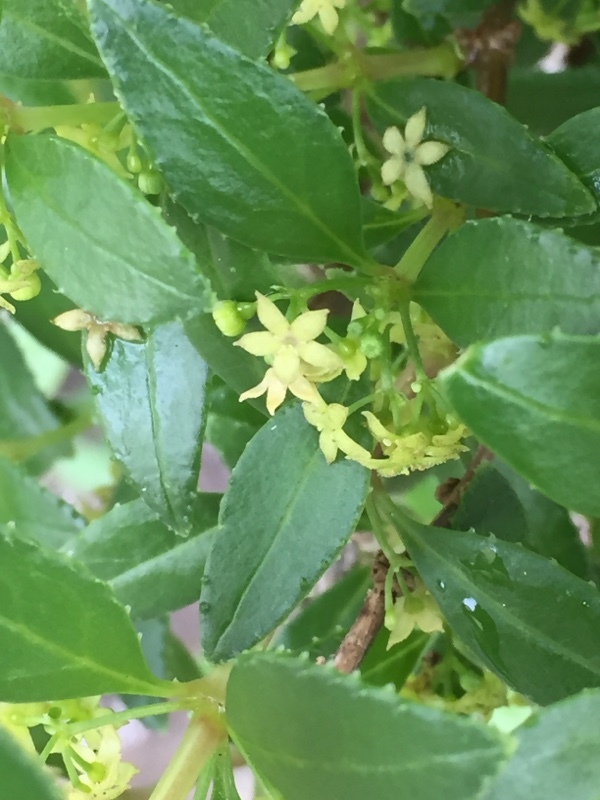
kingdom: Plantae
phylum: Tracheophyta
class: Magnoliopsida
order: Gentianales
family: Rubiaceae
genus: Rubia
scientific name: Rubia fruticosa
